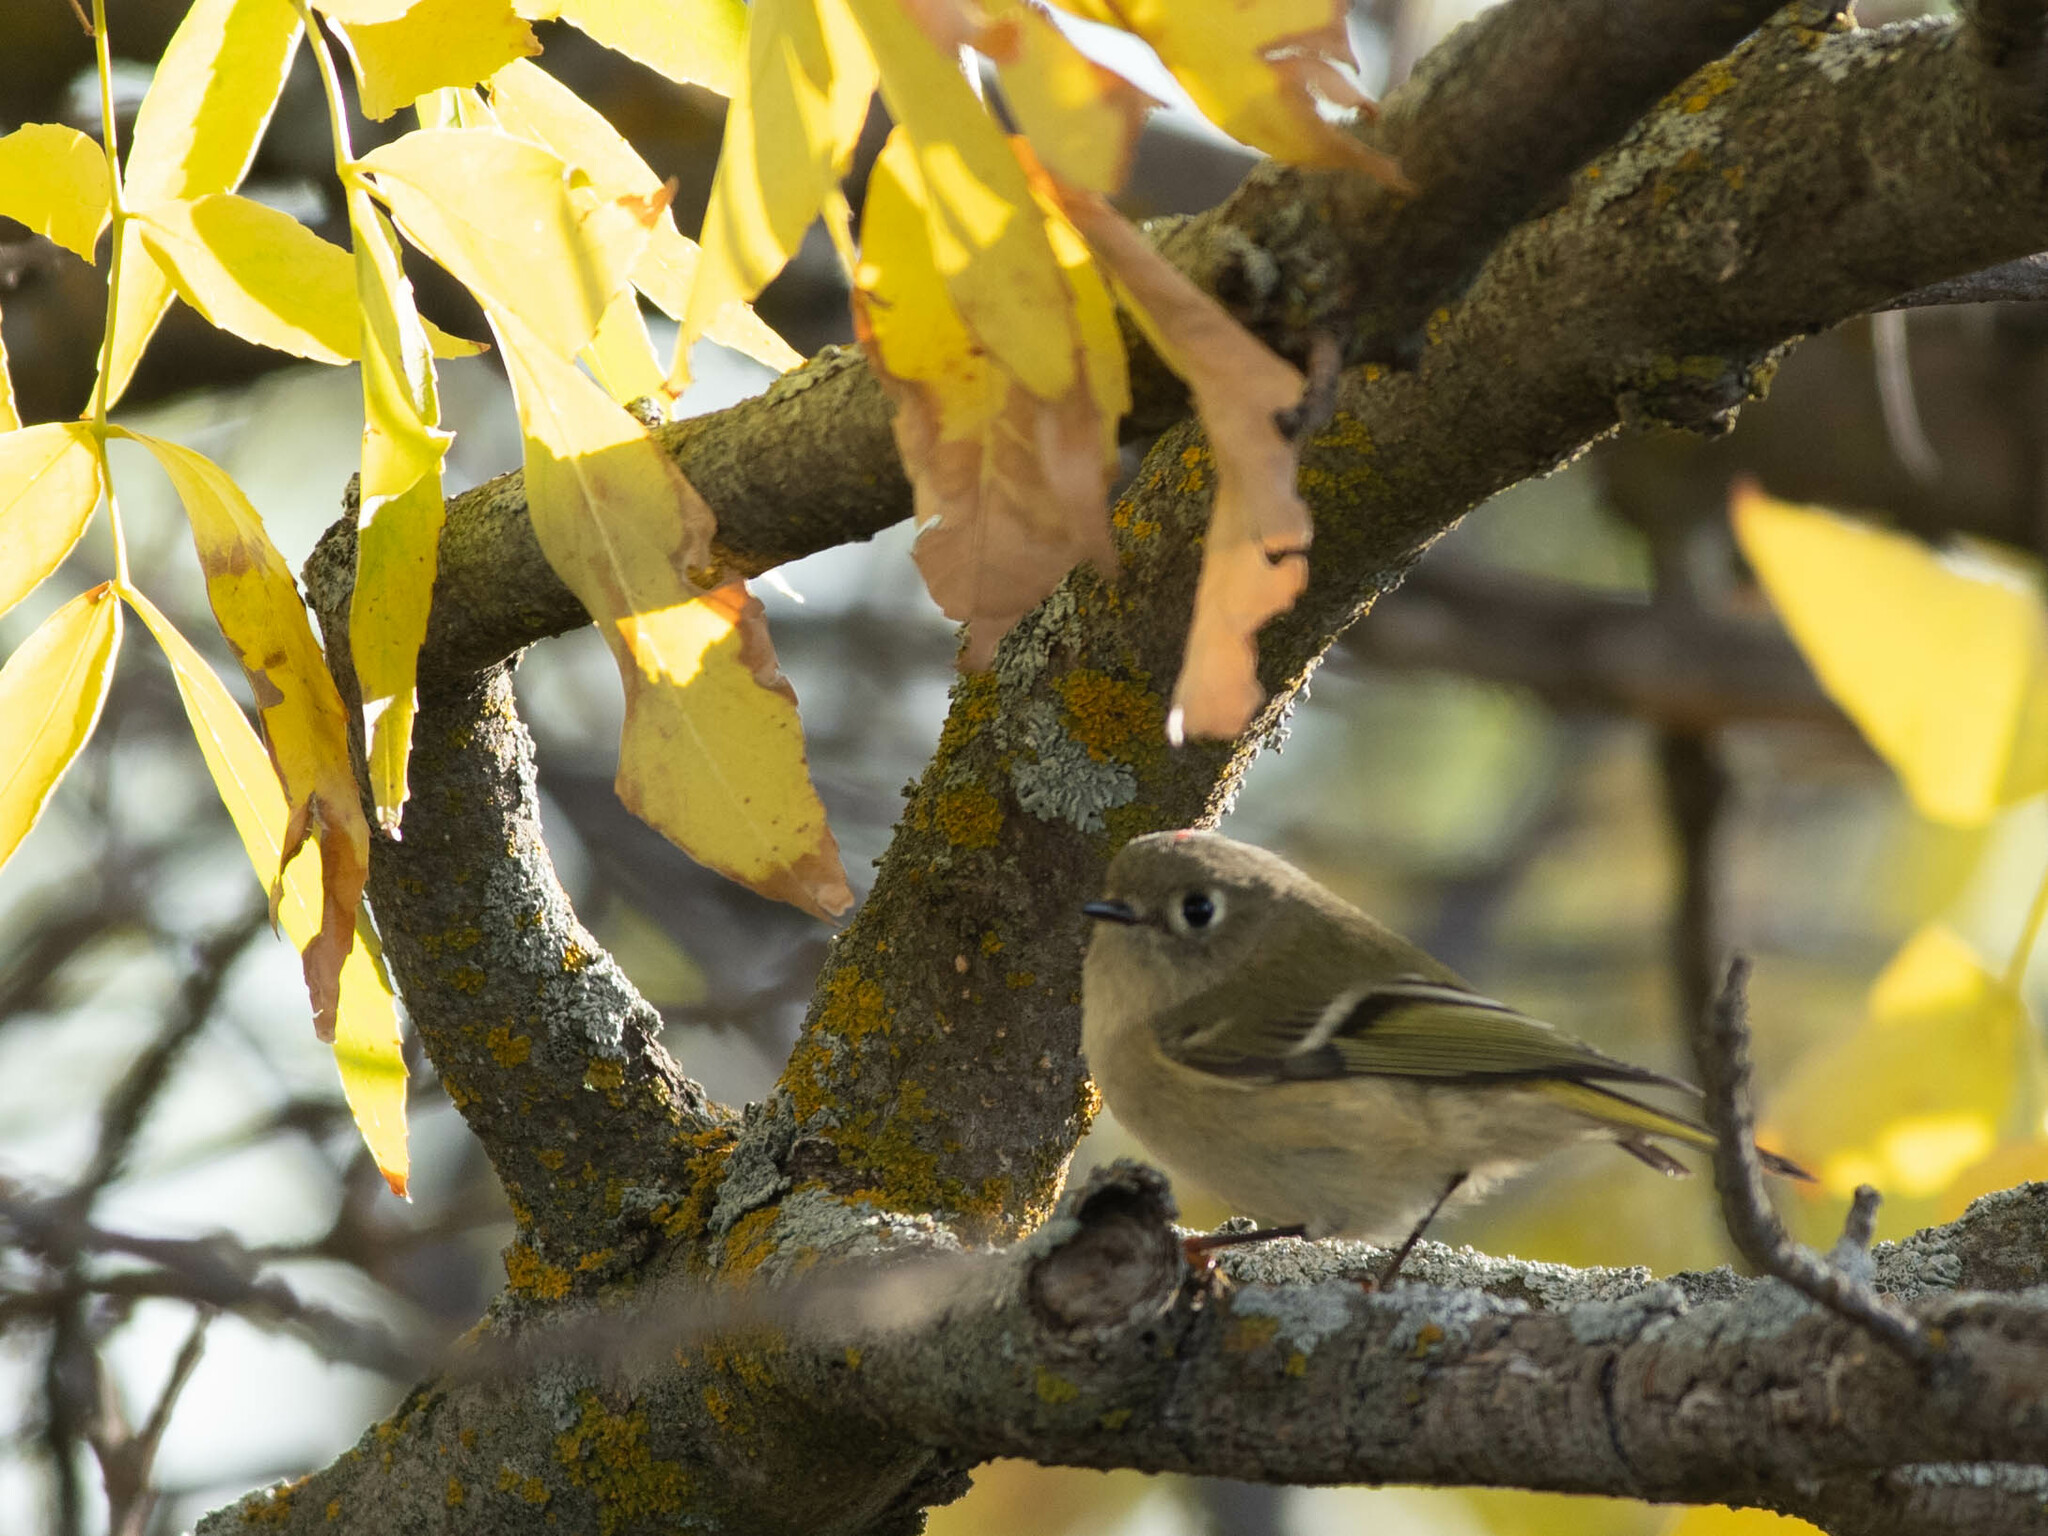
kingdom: Animalia
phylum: Chordata
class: Aves
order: Passeriformes
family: Regulidae
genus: Regulus
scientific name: Regulus calendula
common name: Ruby-crowned kinglet
